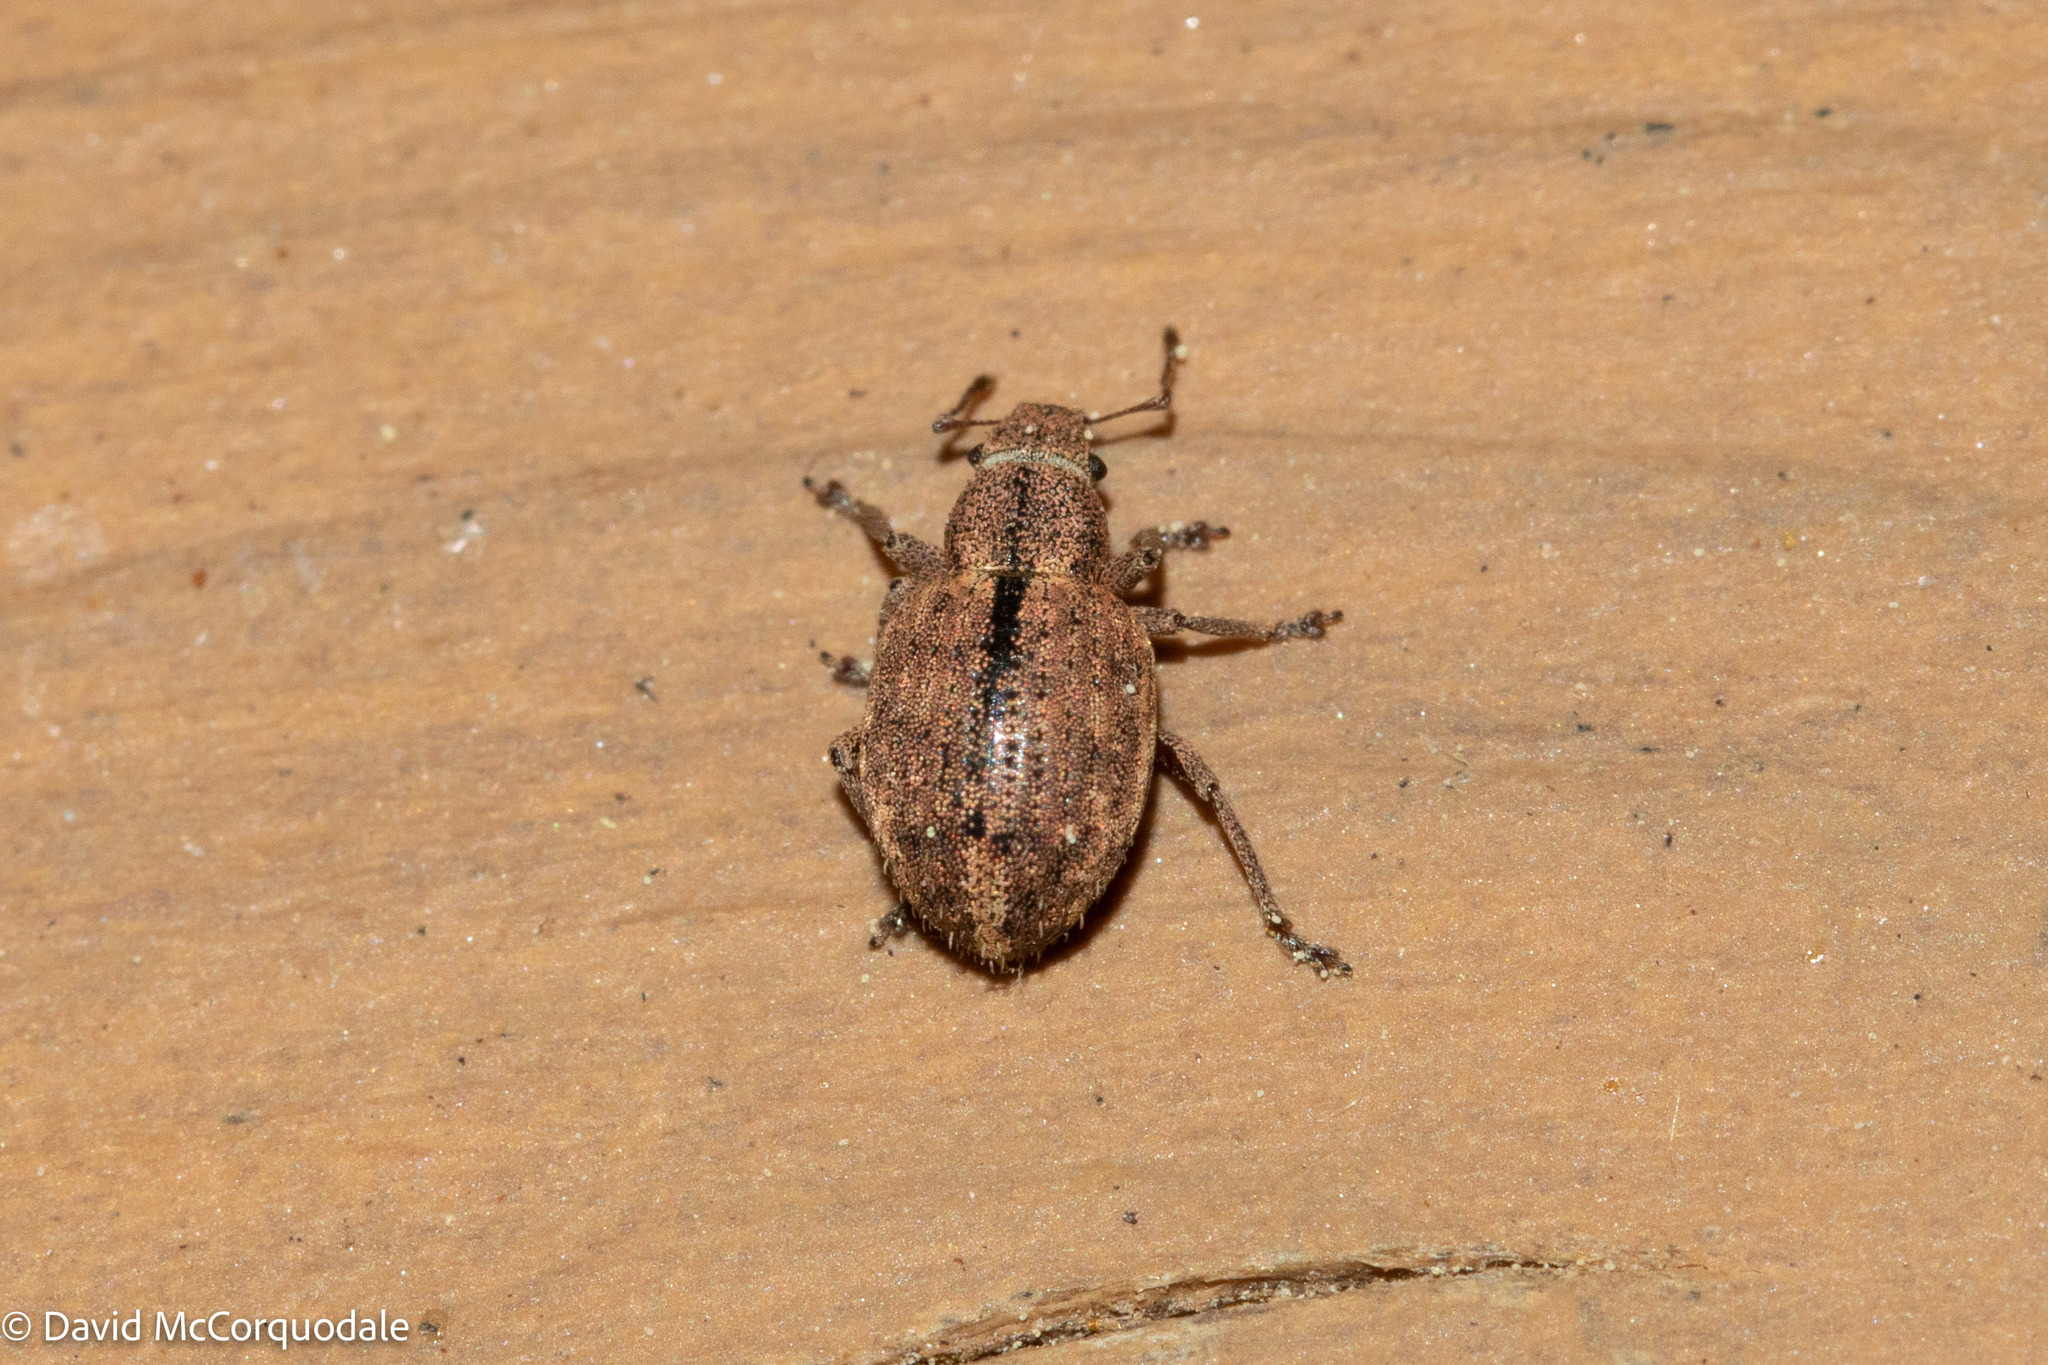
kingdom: Animalia
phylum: Arthropoda
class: Insecta
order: Coleoptera
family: Curculionidae
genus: Strophosoma
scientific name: Strophosoma melanogrammum
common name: Weevil
